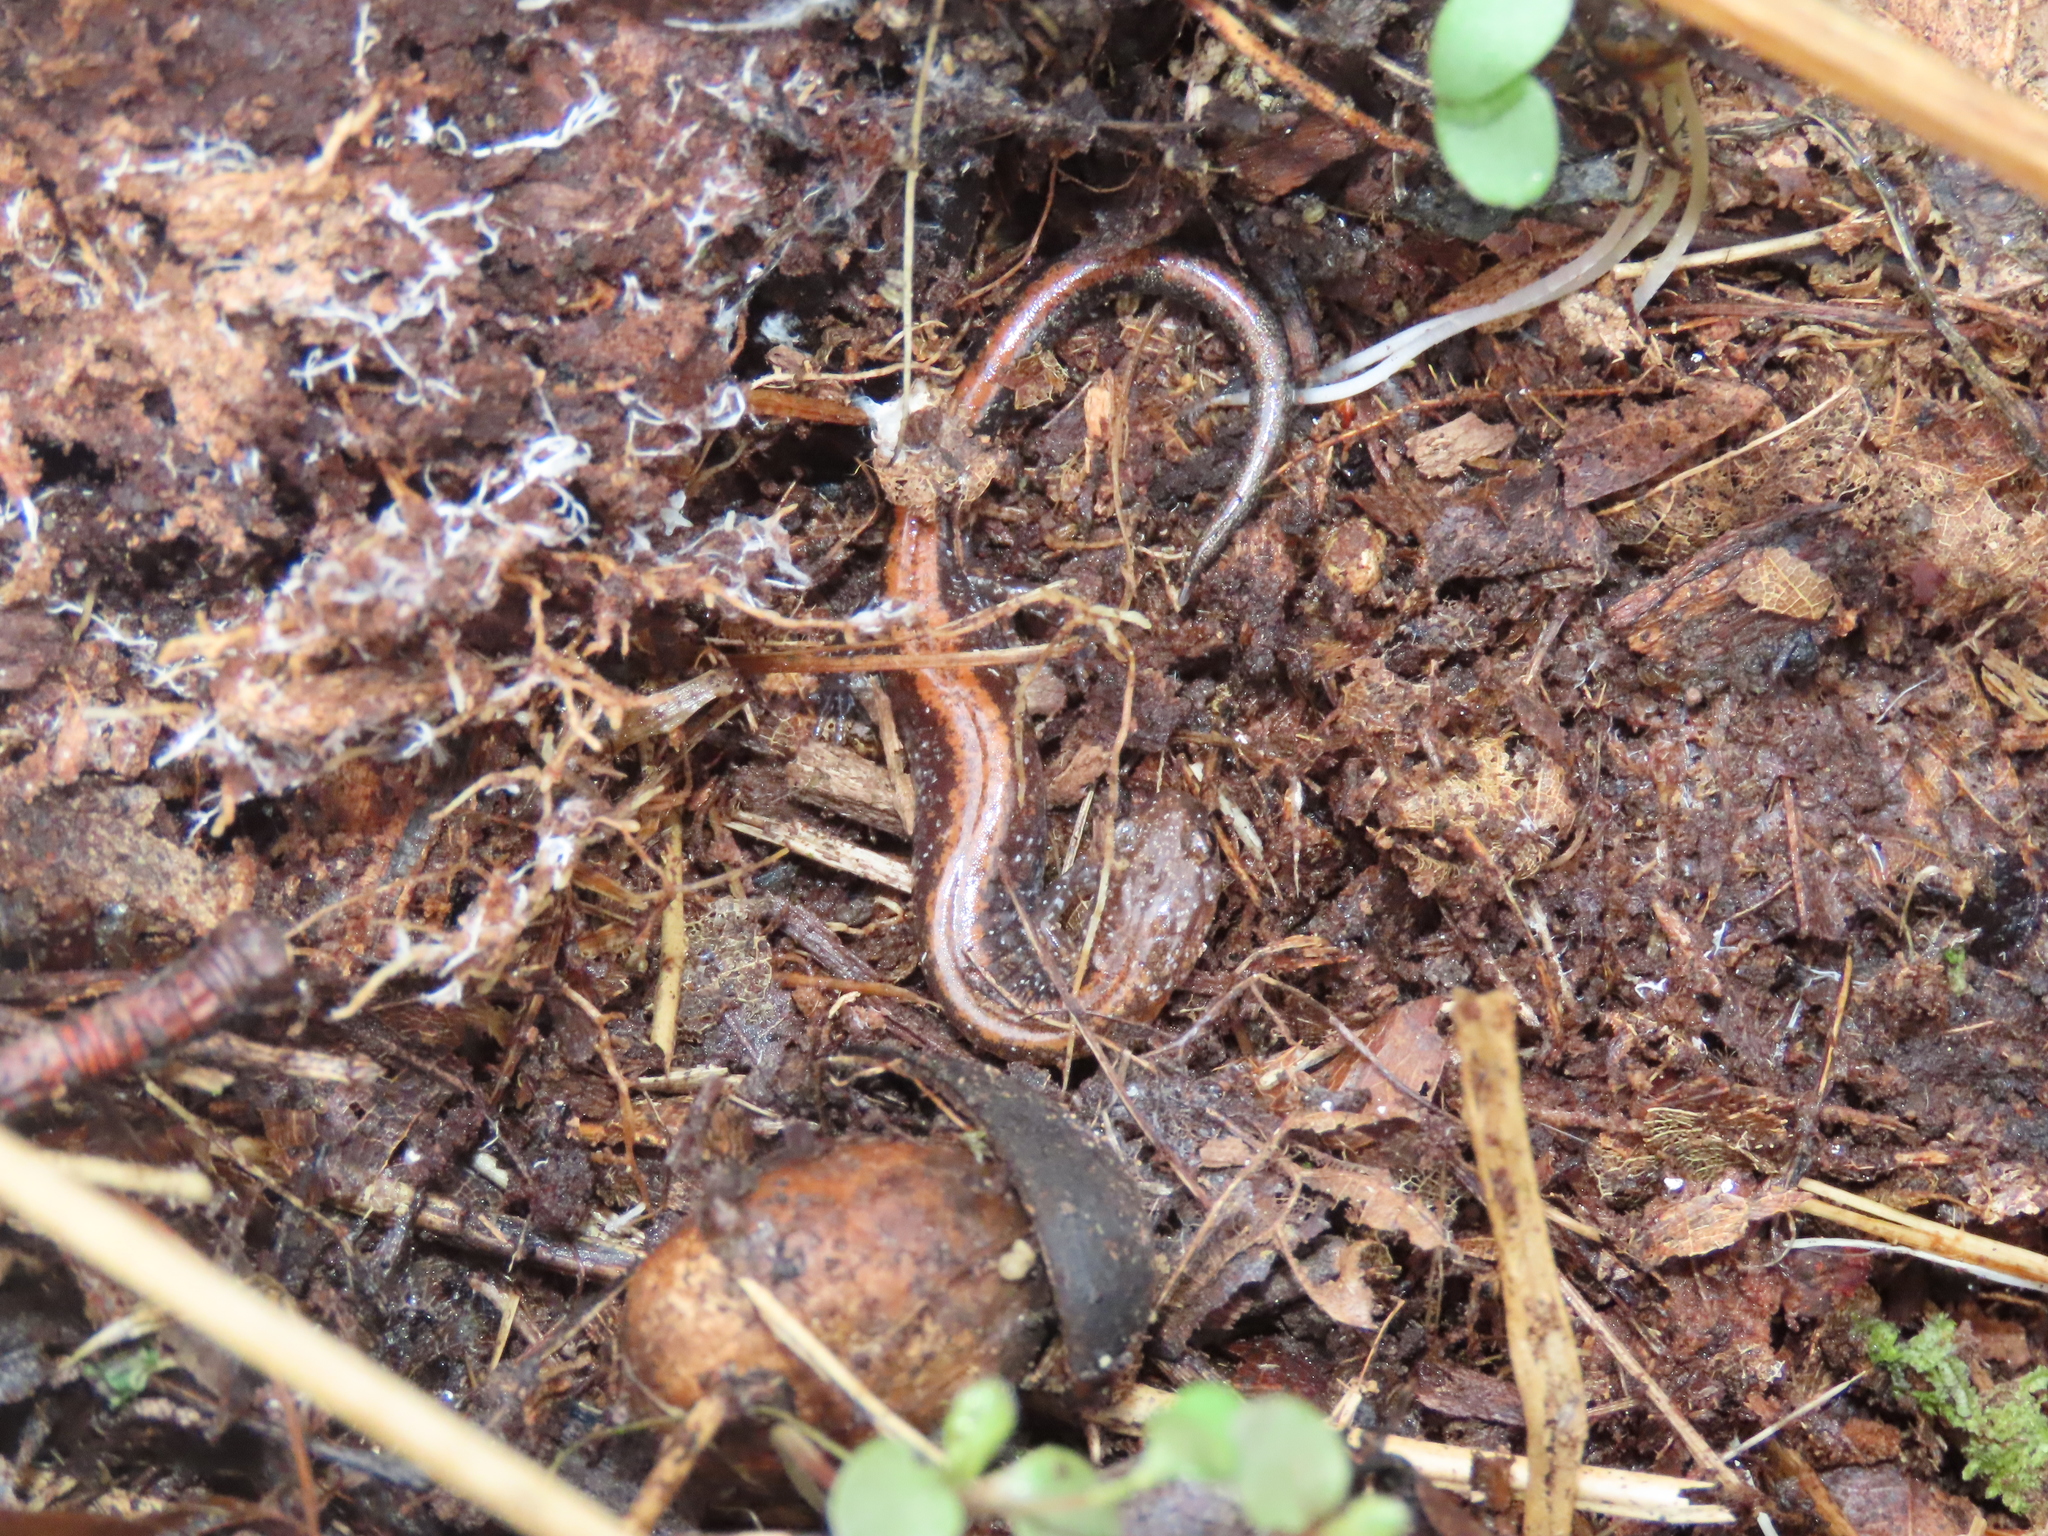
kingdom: Animalia
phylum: Chordata
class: Amphibia
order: Caudata
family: Plethodontidae
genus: Plethodon
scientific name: Plethodon cinereus
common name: Redback salamander
